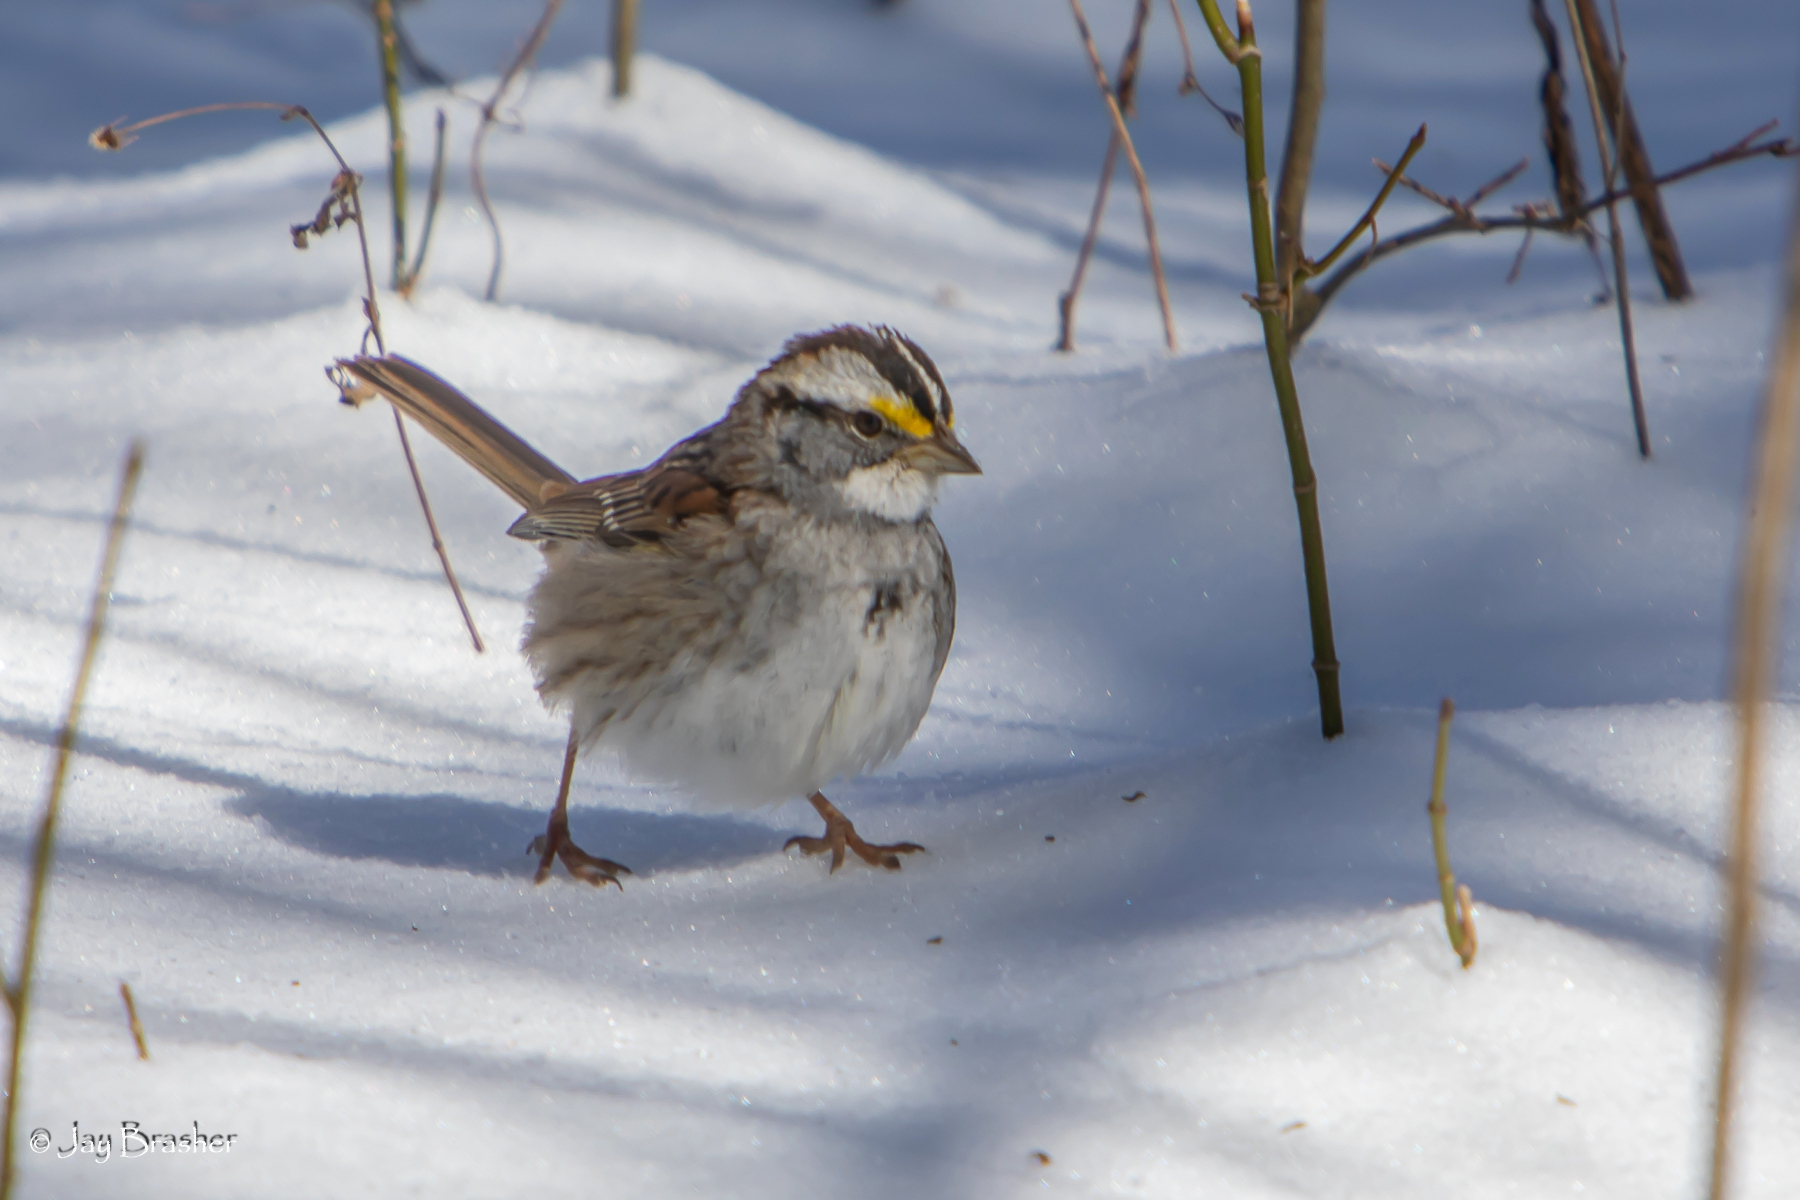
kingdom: Animalia
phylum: Chordata
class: Aves
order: Passeriformes
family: Passerellidae
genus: Zonotrichia
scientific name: Zonotrichia albicollis
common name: White-throated sparrow
